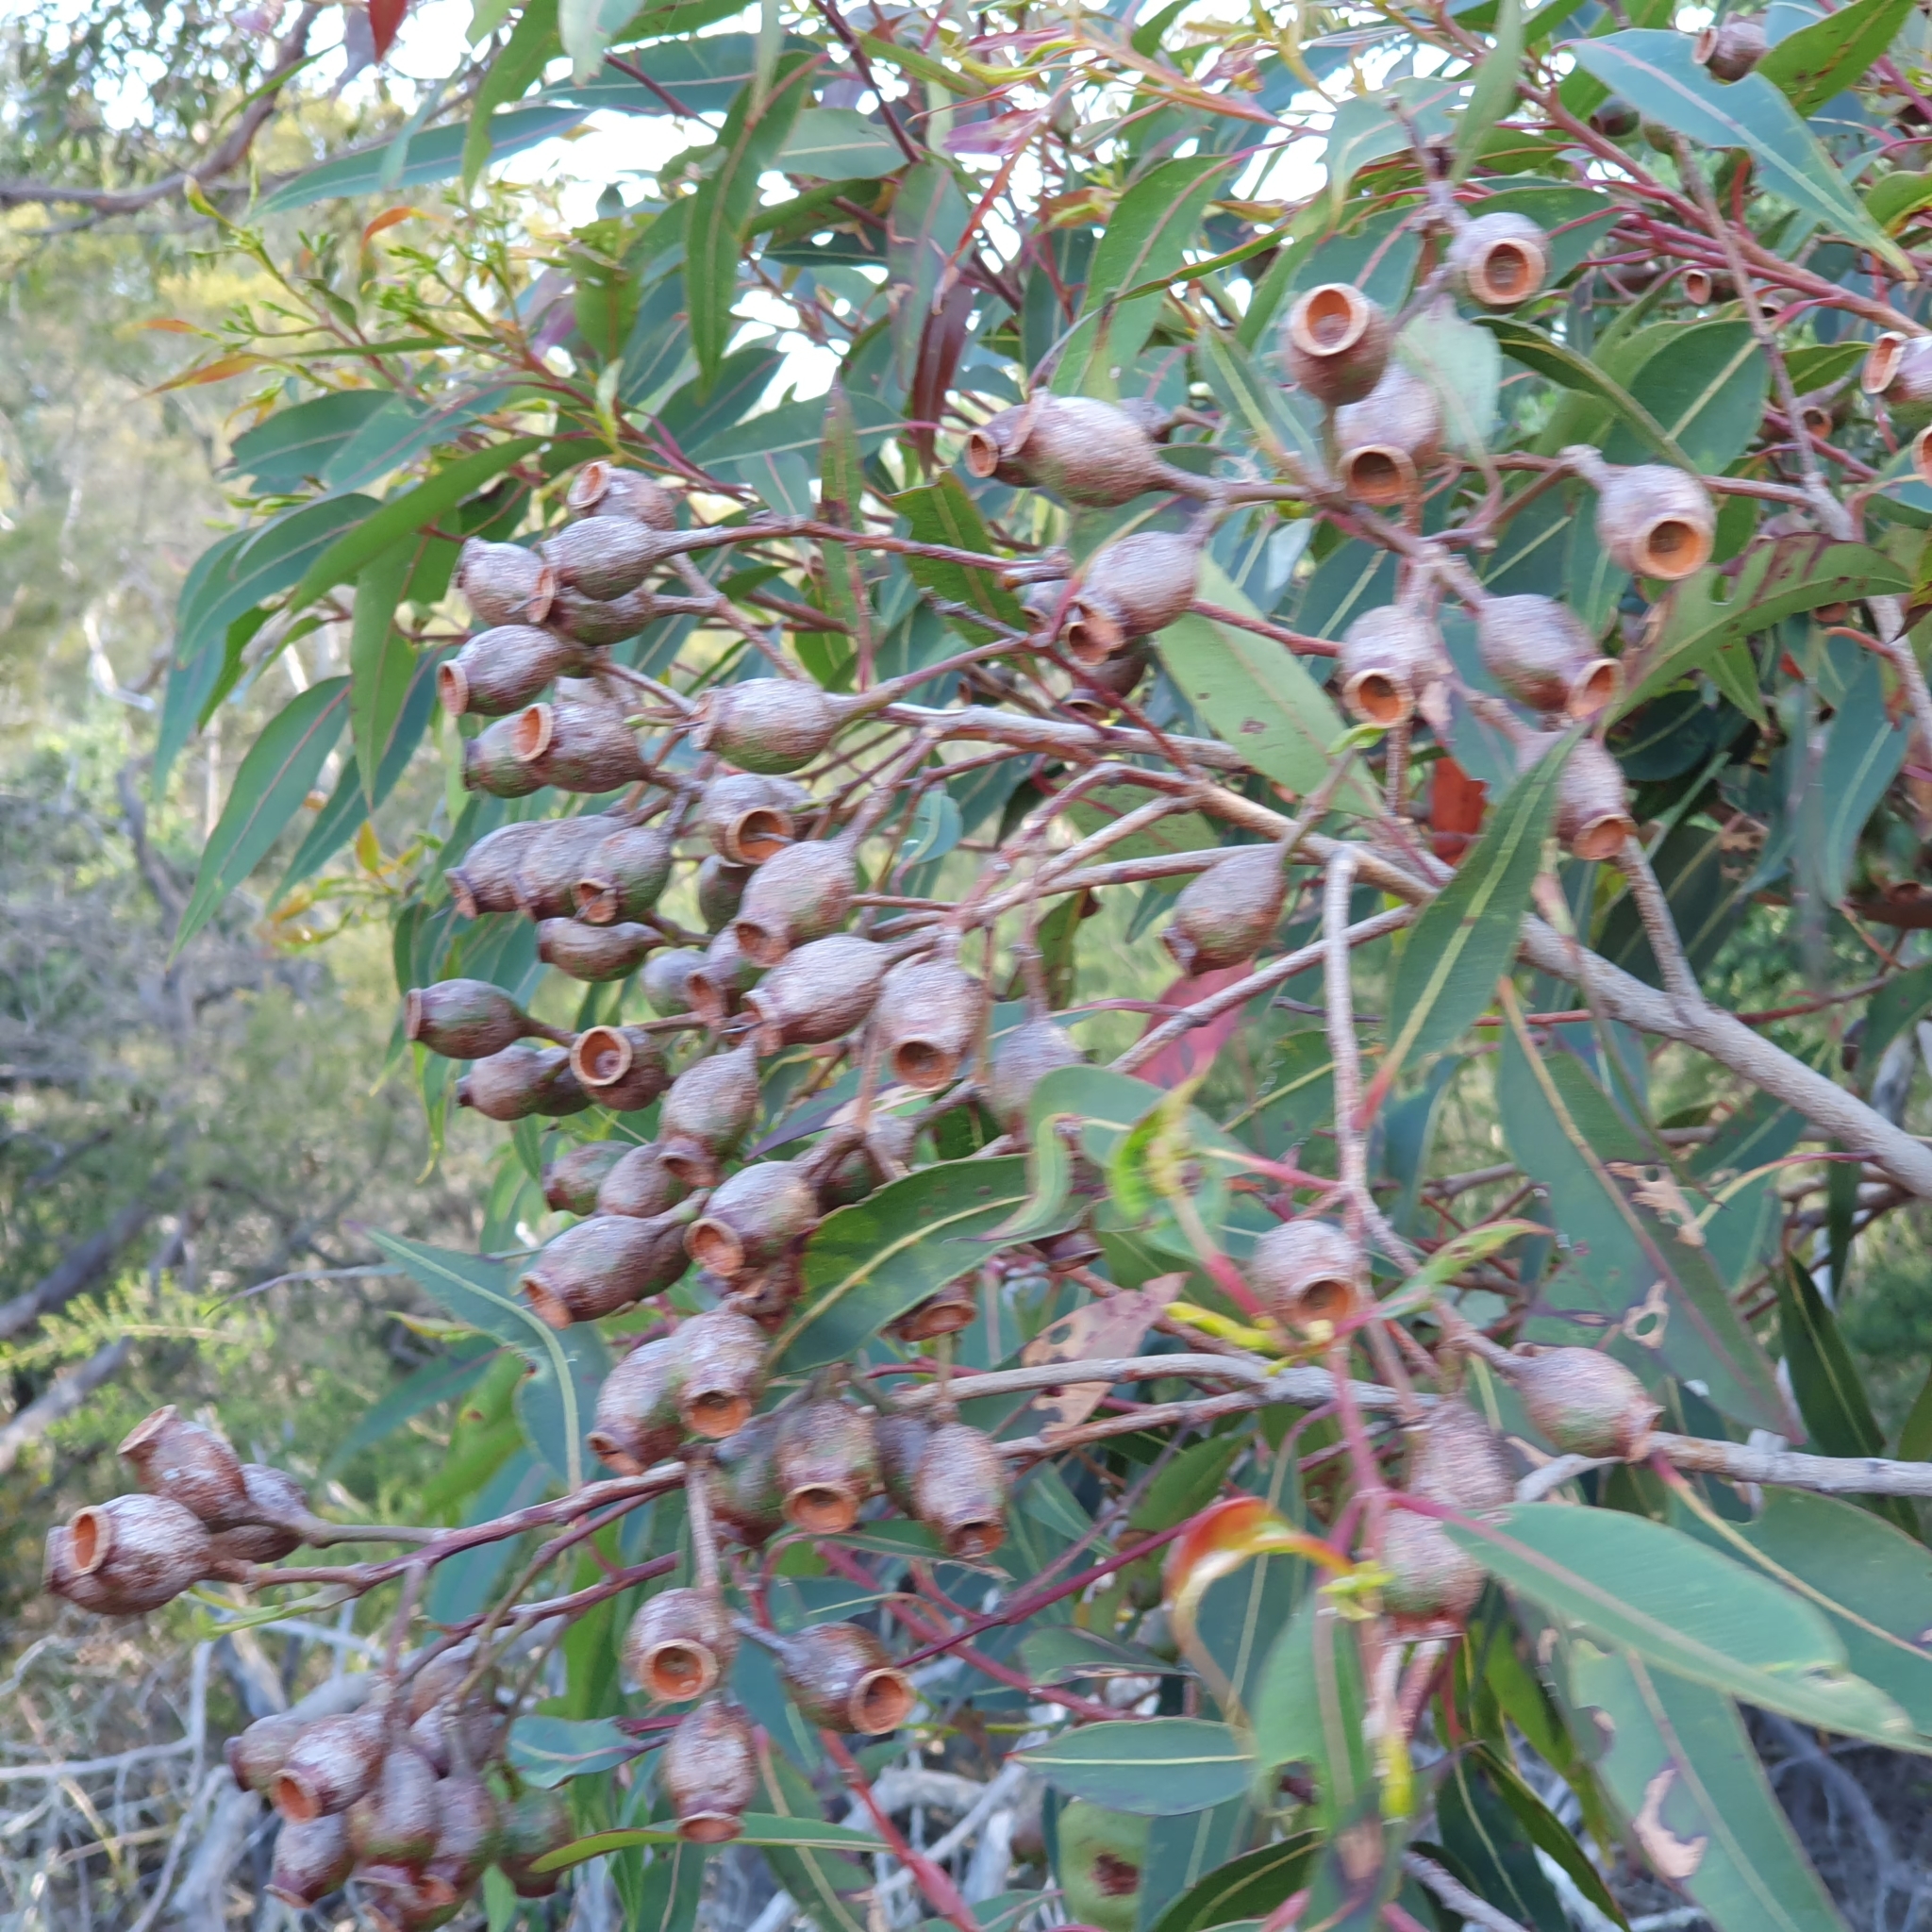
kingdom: Plantae
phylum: Tracheophyta
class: Magnoliopsida
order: Myrtales
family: Myrtaceae
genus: Corymbia
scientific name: Corymbia gummifera
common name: Red bloodwood
